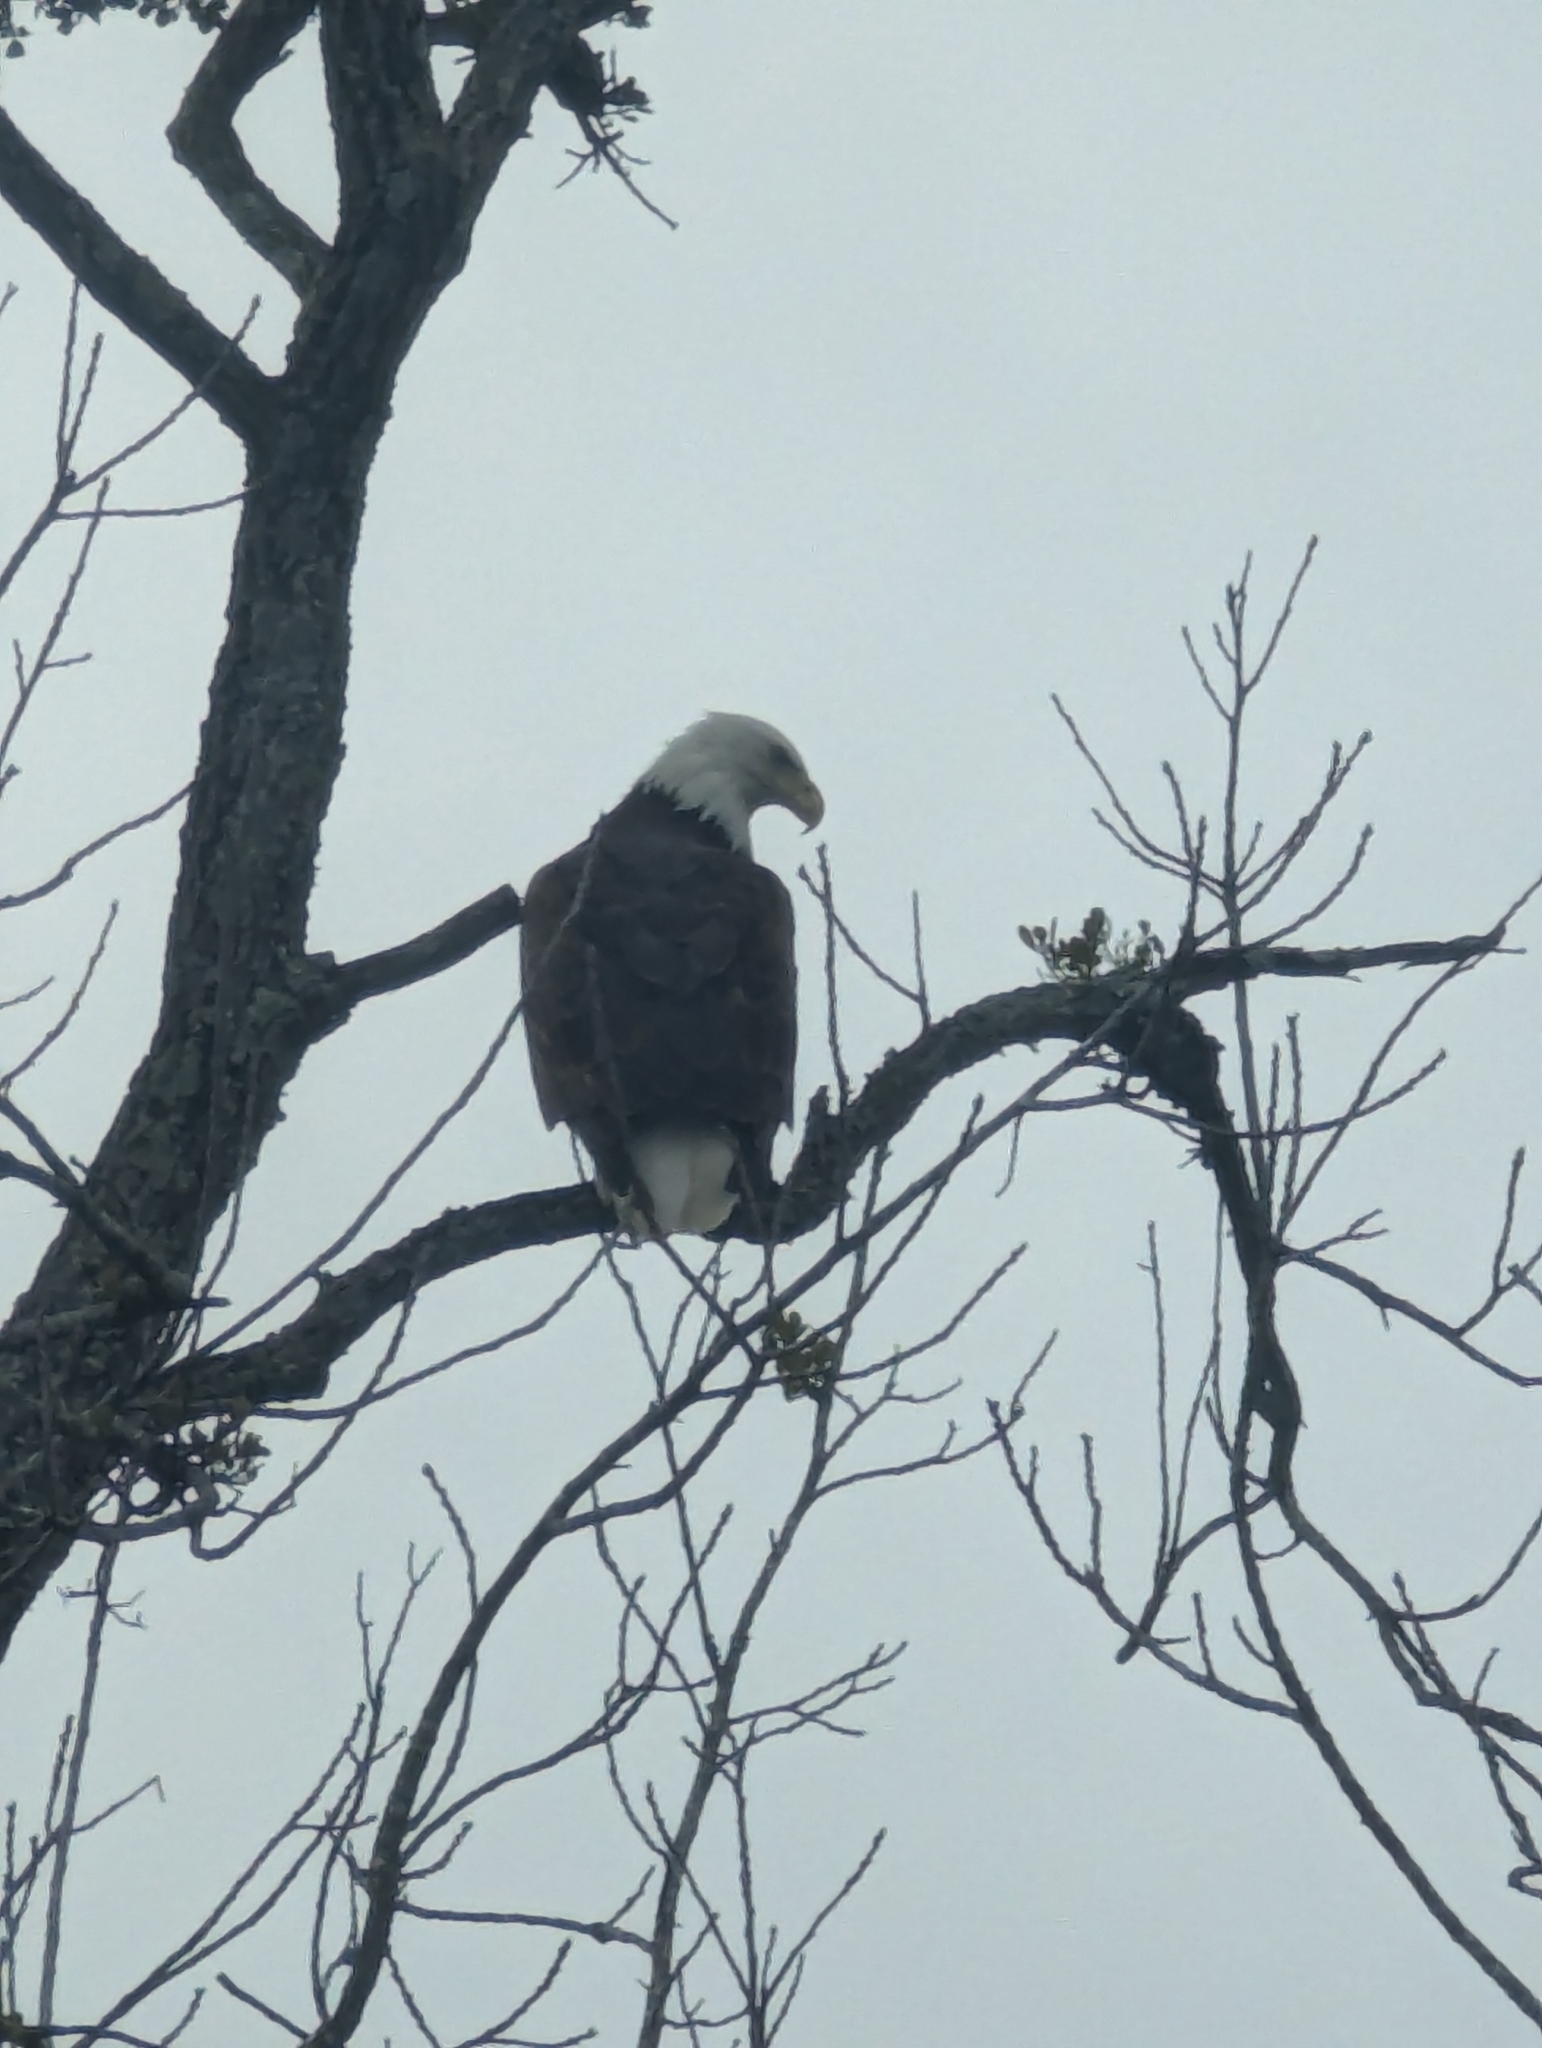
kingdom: Animalia
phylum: Chordata
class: Aves
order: Accipitriformes
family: Accipitridae
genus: Haliaeetus
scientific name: Haliaeetus leucocephalus
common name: Bald eagle
